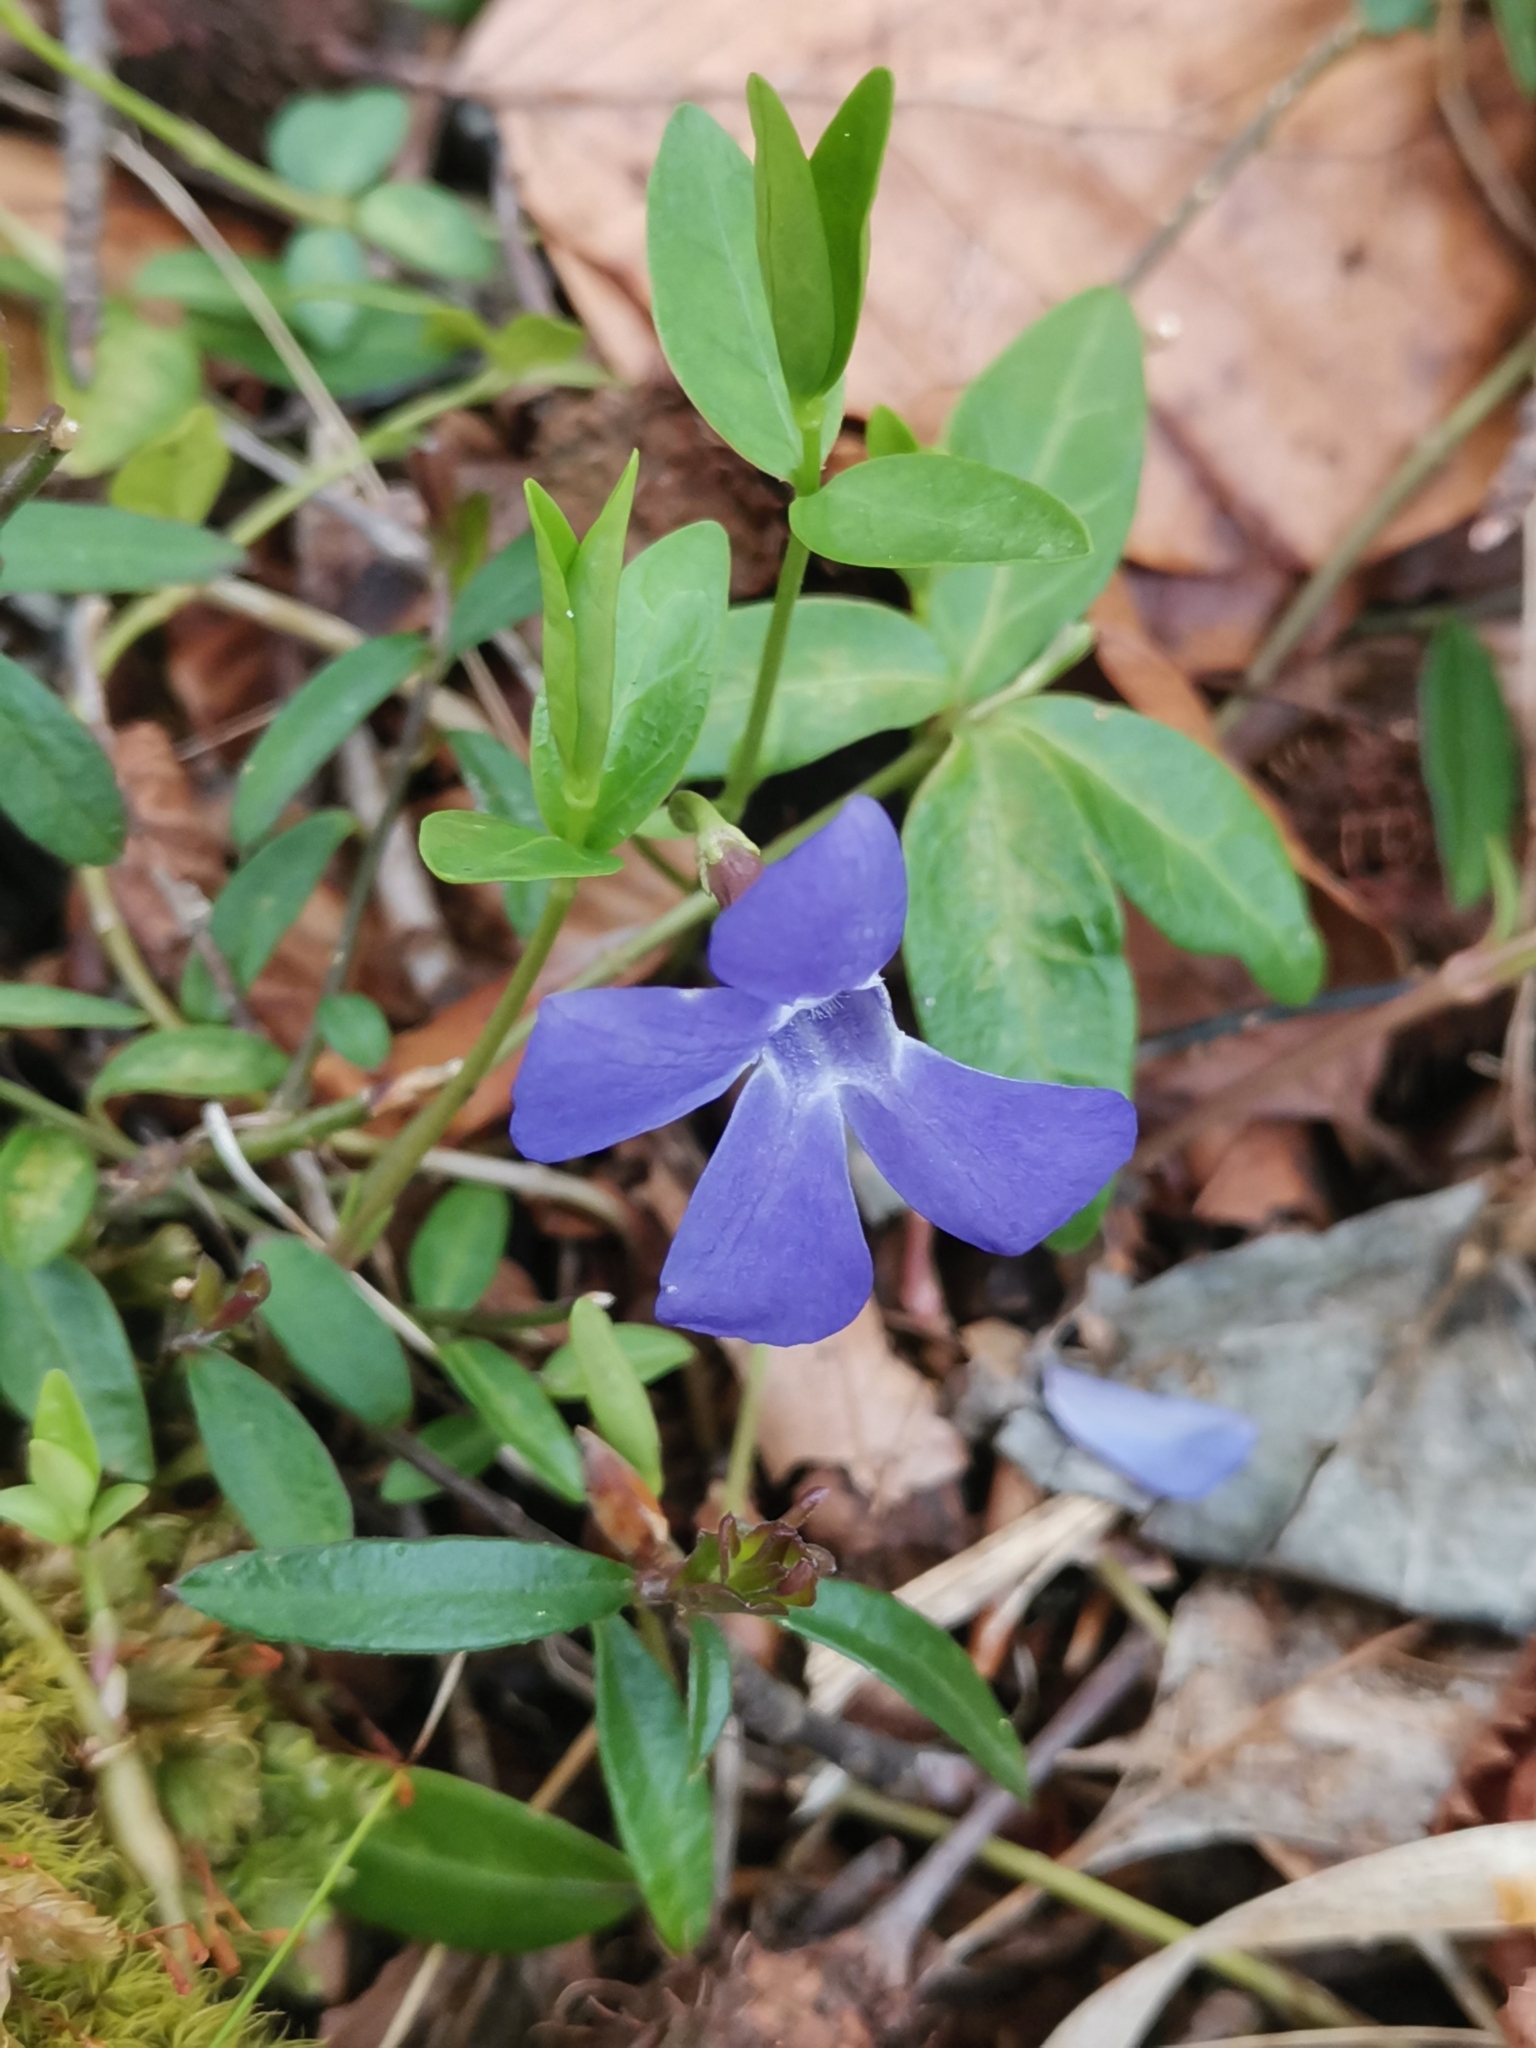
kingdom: Plantae
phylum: Tracheophyta
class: Magnoliopsida
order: Gentianales
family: Apocynaceae
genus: Vinca
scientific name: Vinca minor
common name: Lesser periwinkle
